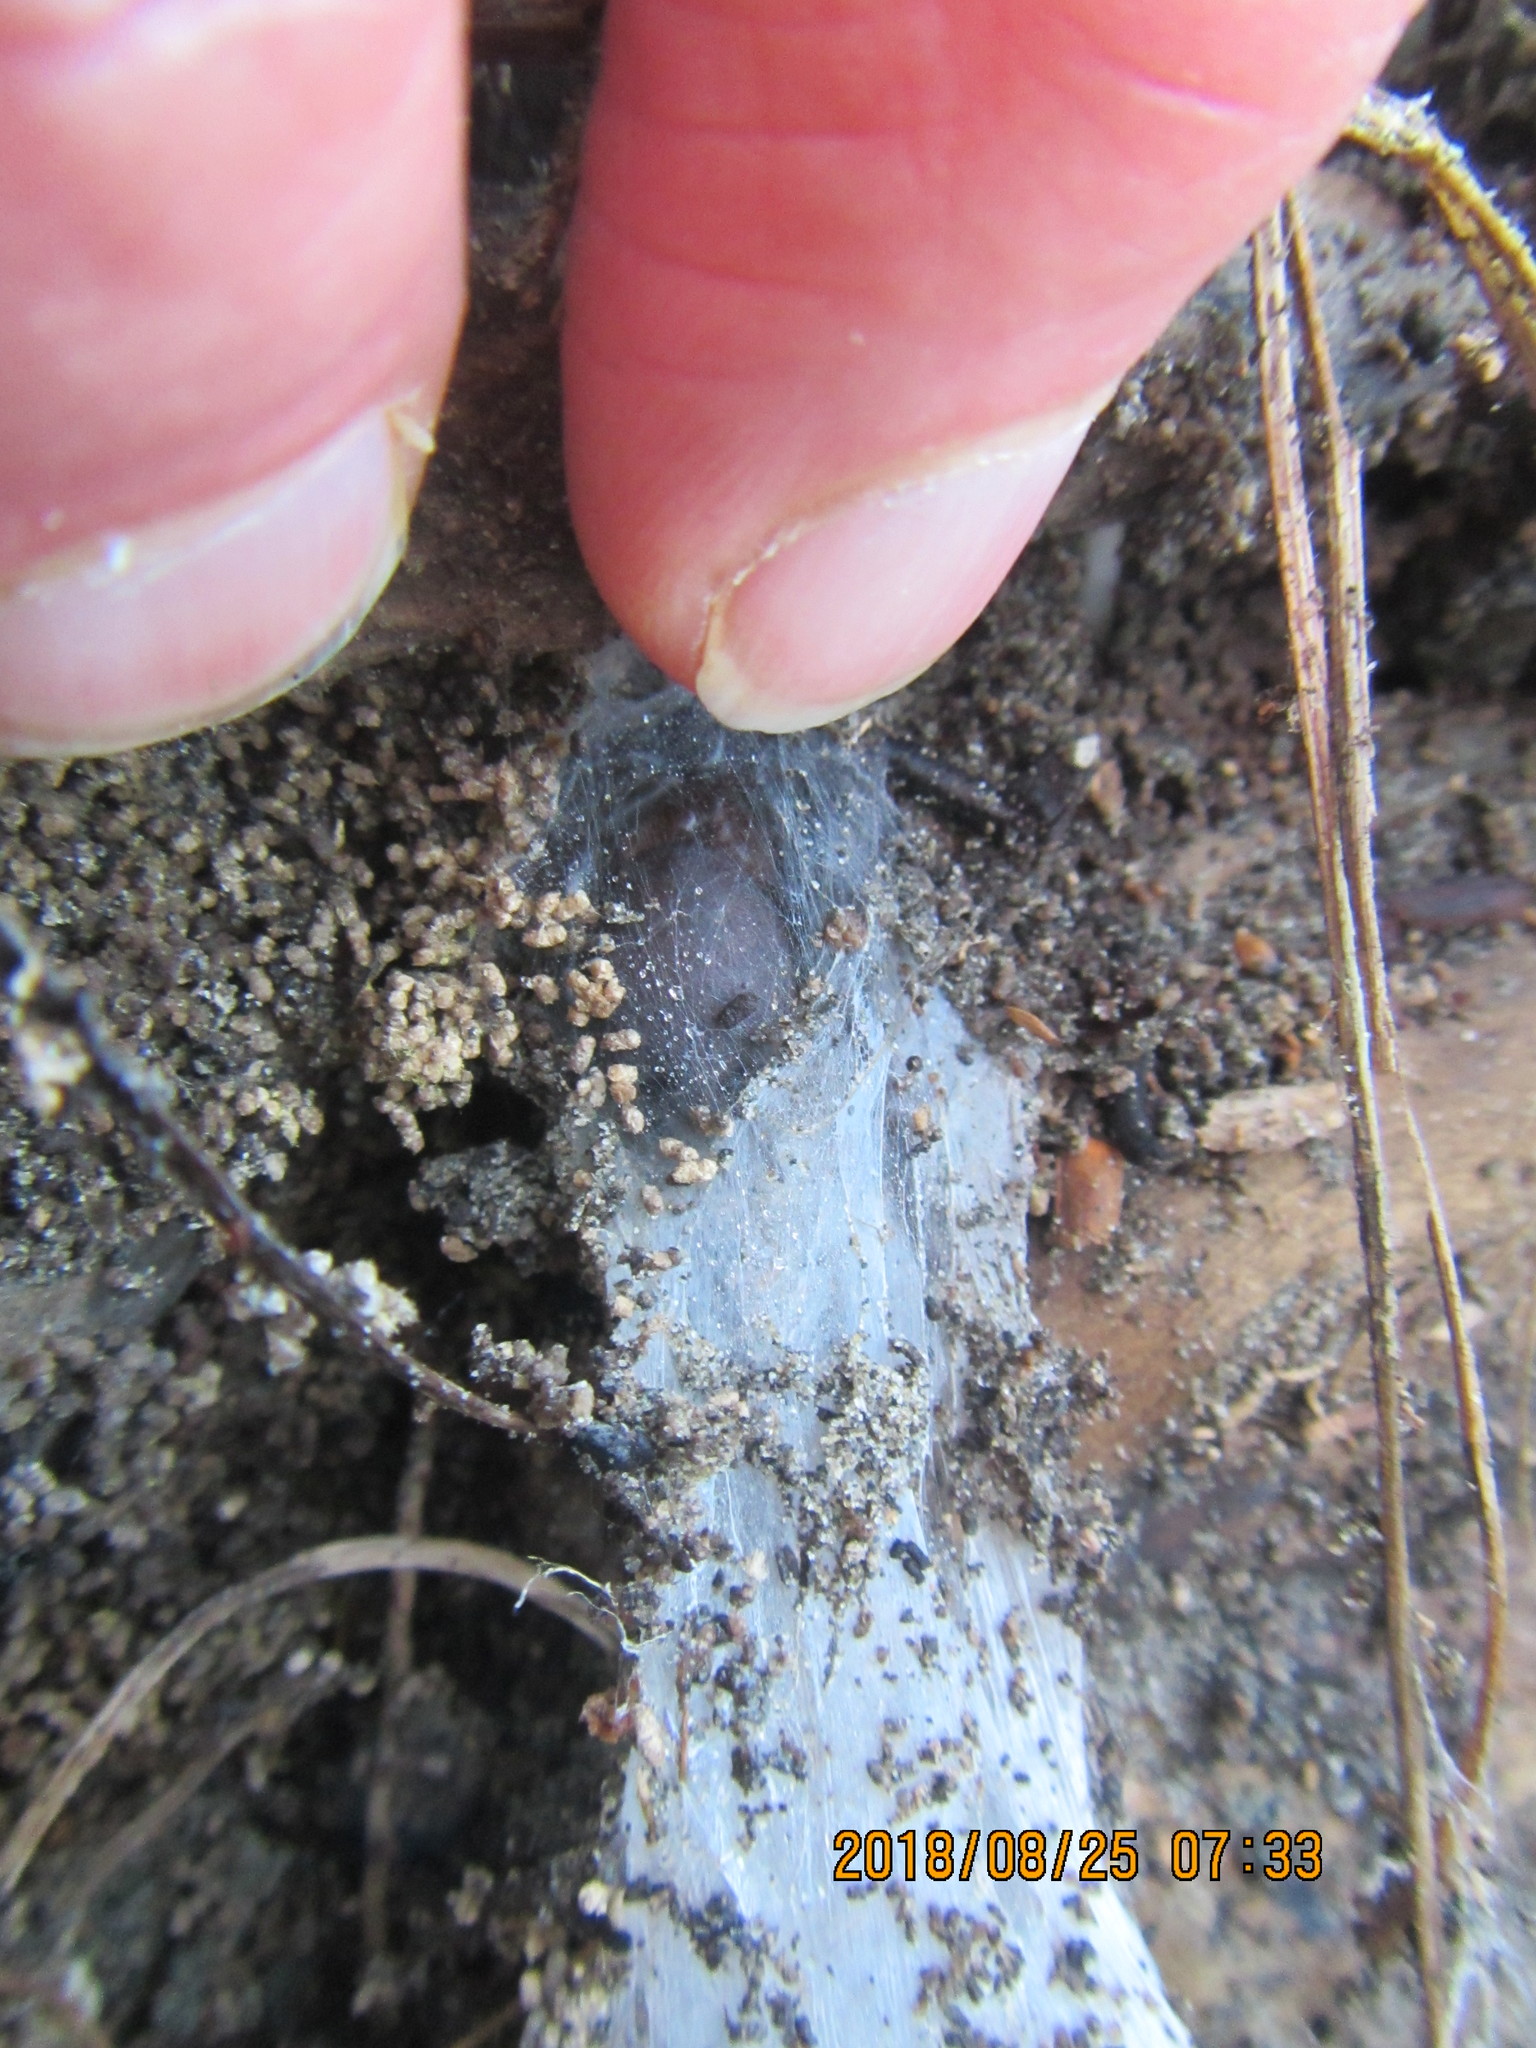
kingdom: Animalia
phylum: Arthropoda
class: Arachnida
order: Araneae
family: Porrhothelidae
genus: Porrhothele
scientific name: Porrhothele antipodiana
